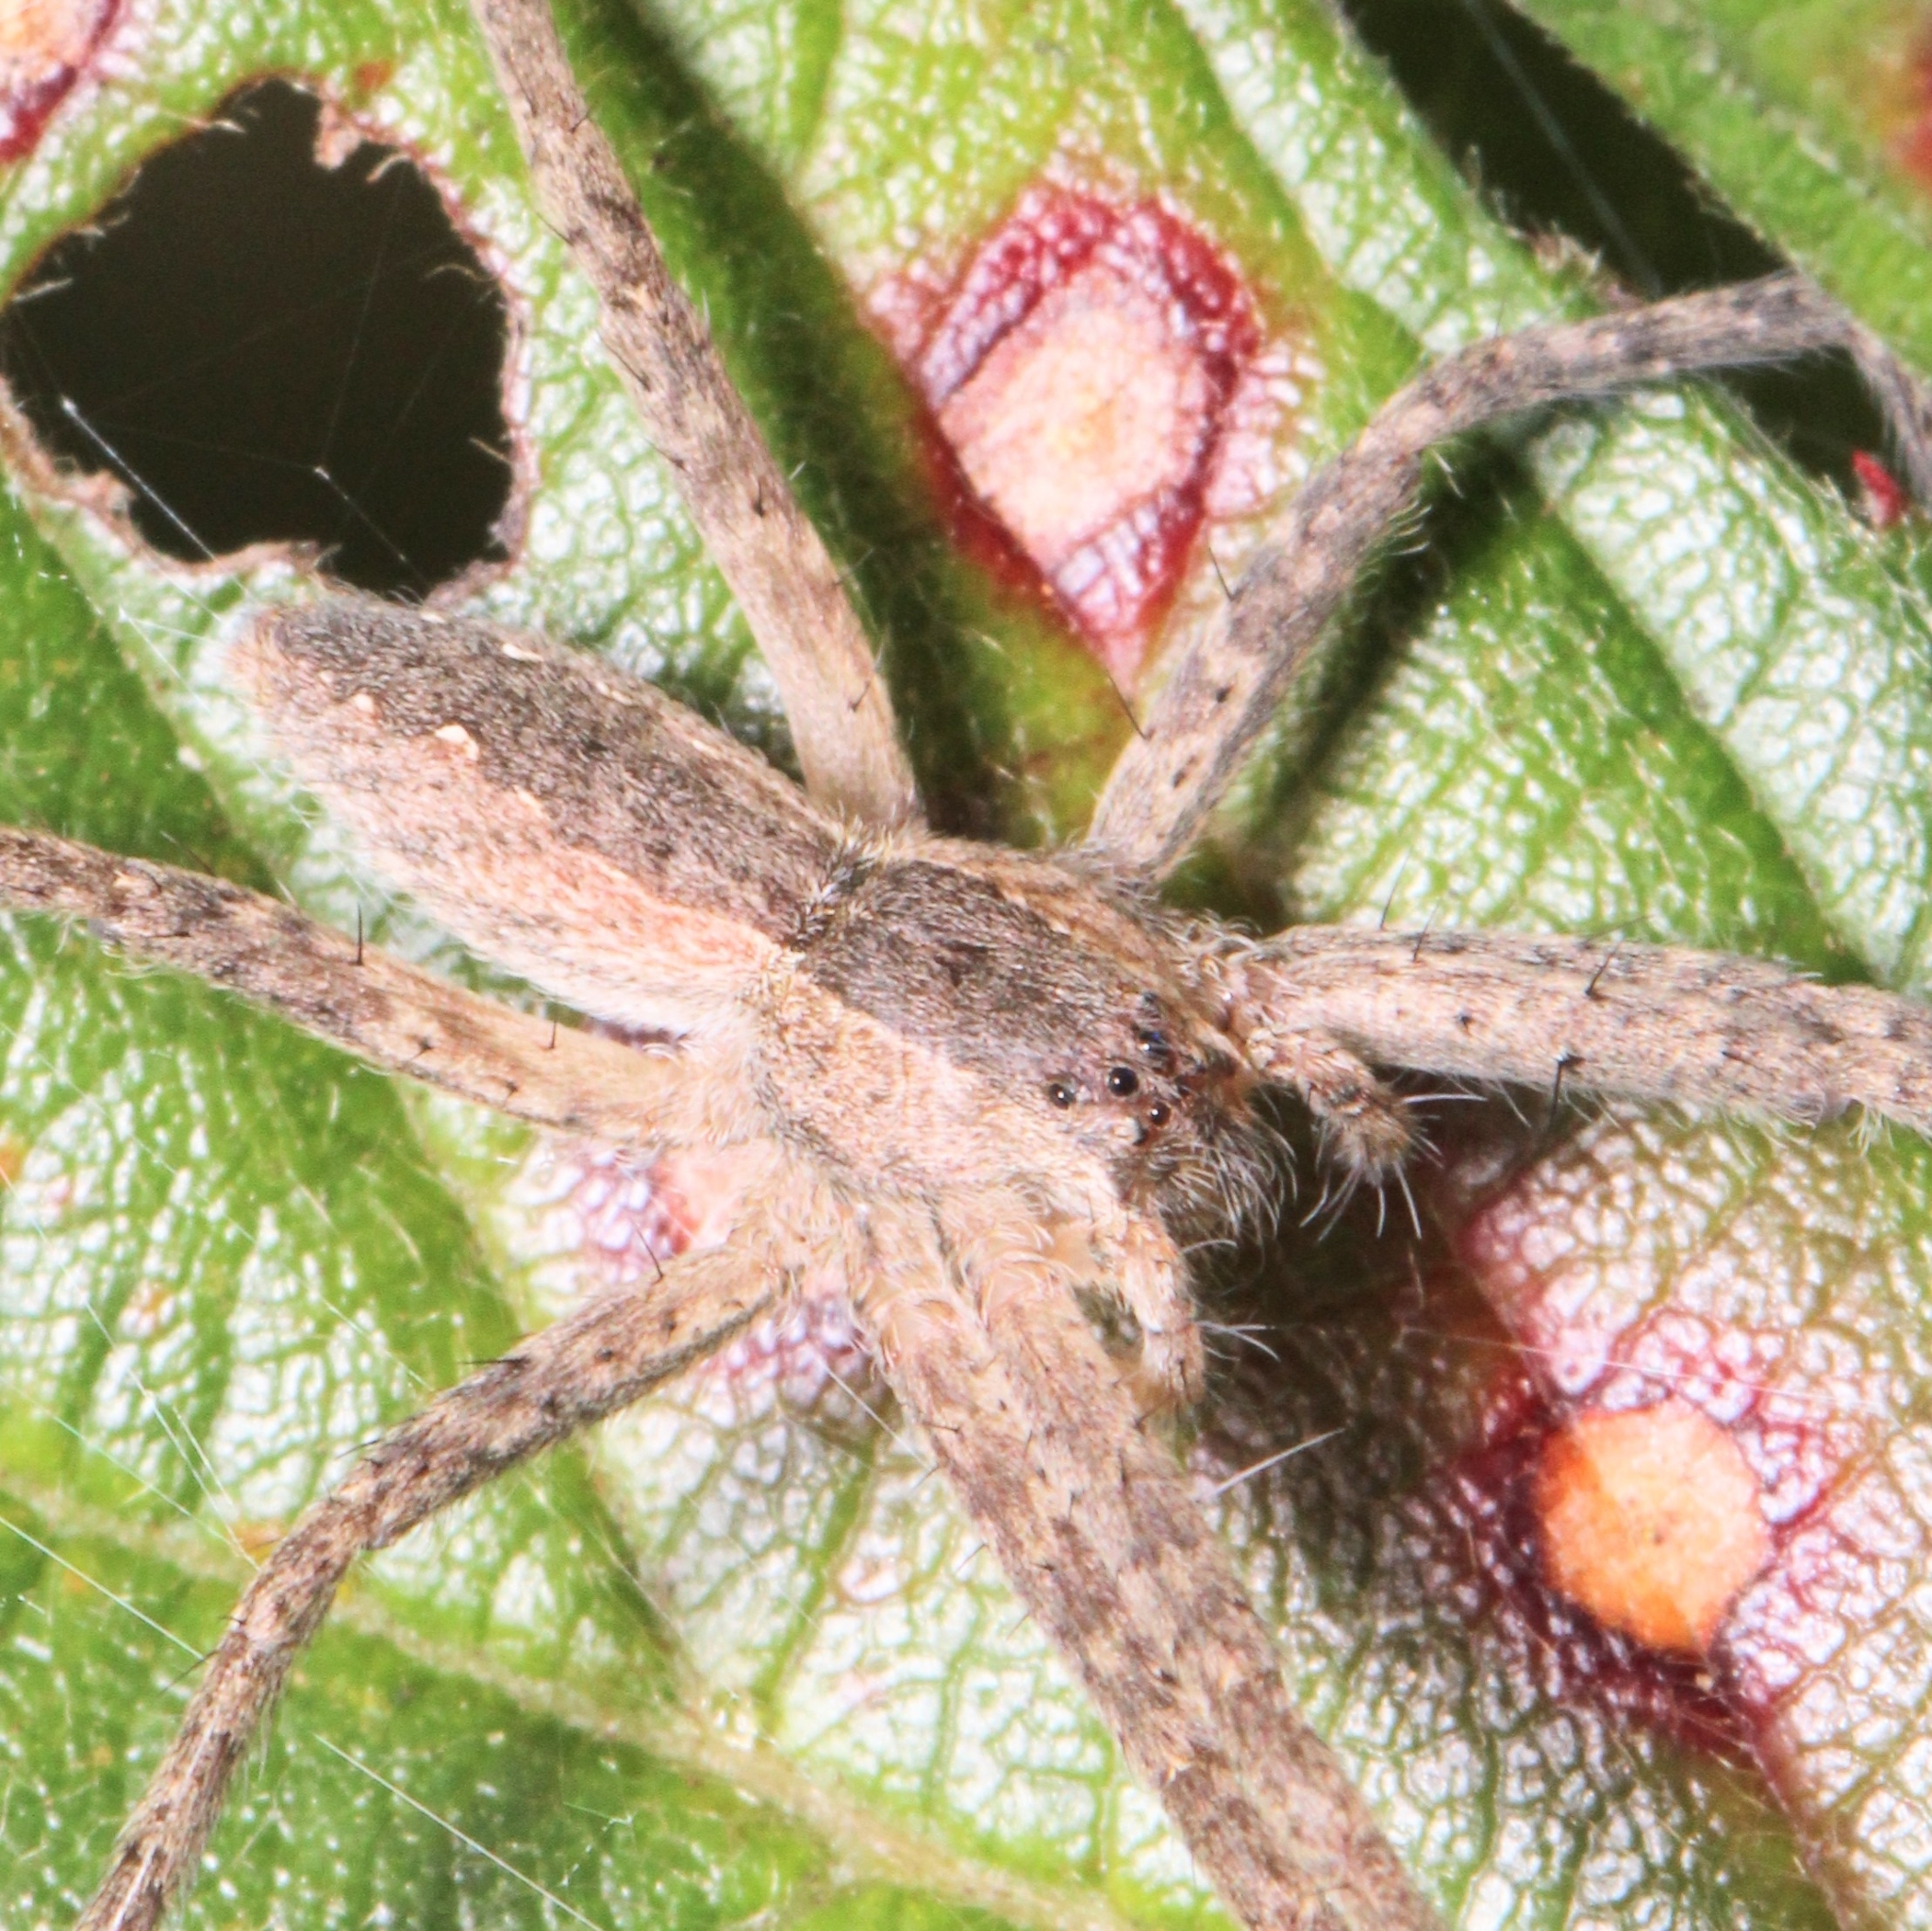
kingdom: Animalia
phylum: Arthropoda
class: Arachnida
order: Araneae
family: Pisauridae
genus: Pisaurina
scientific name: Pisaurina mira
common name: American nursery web spider
